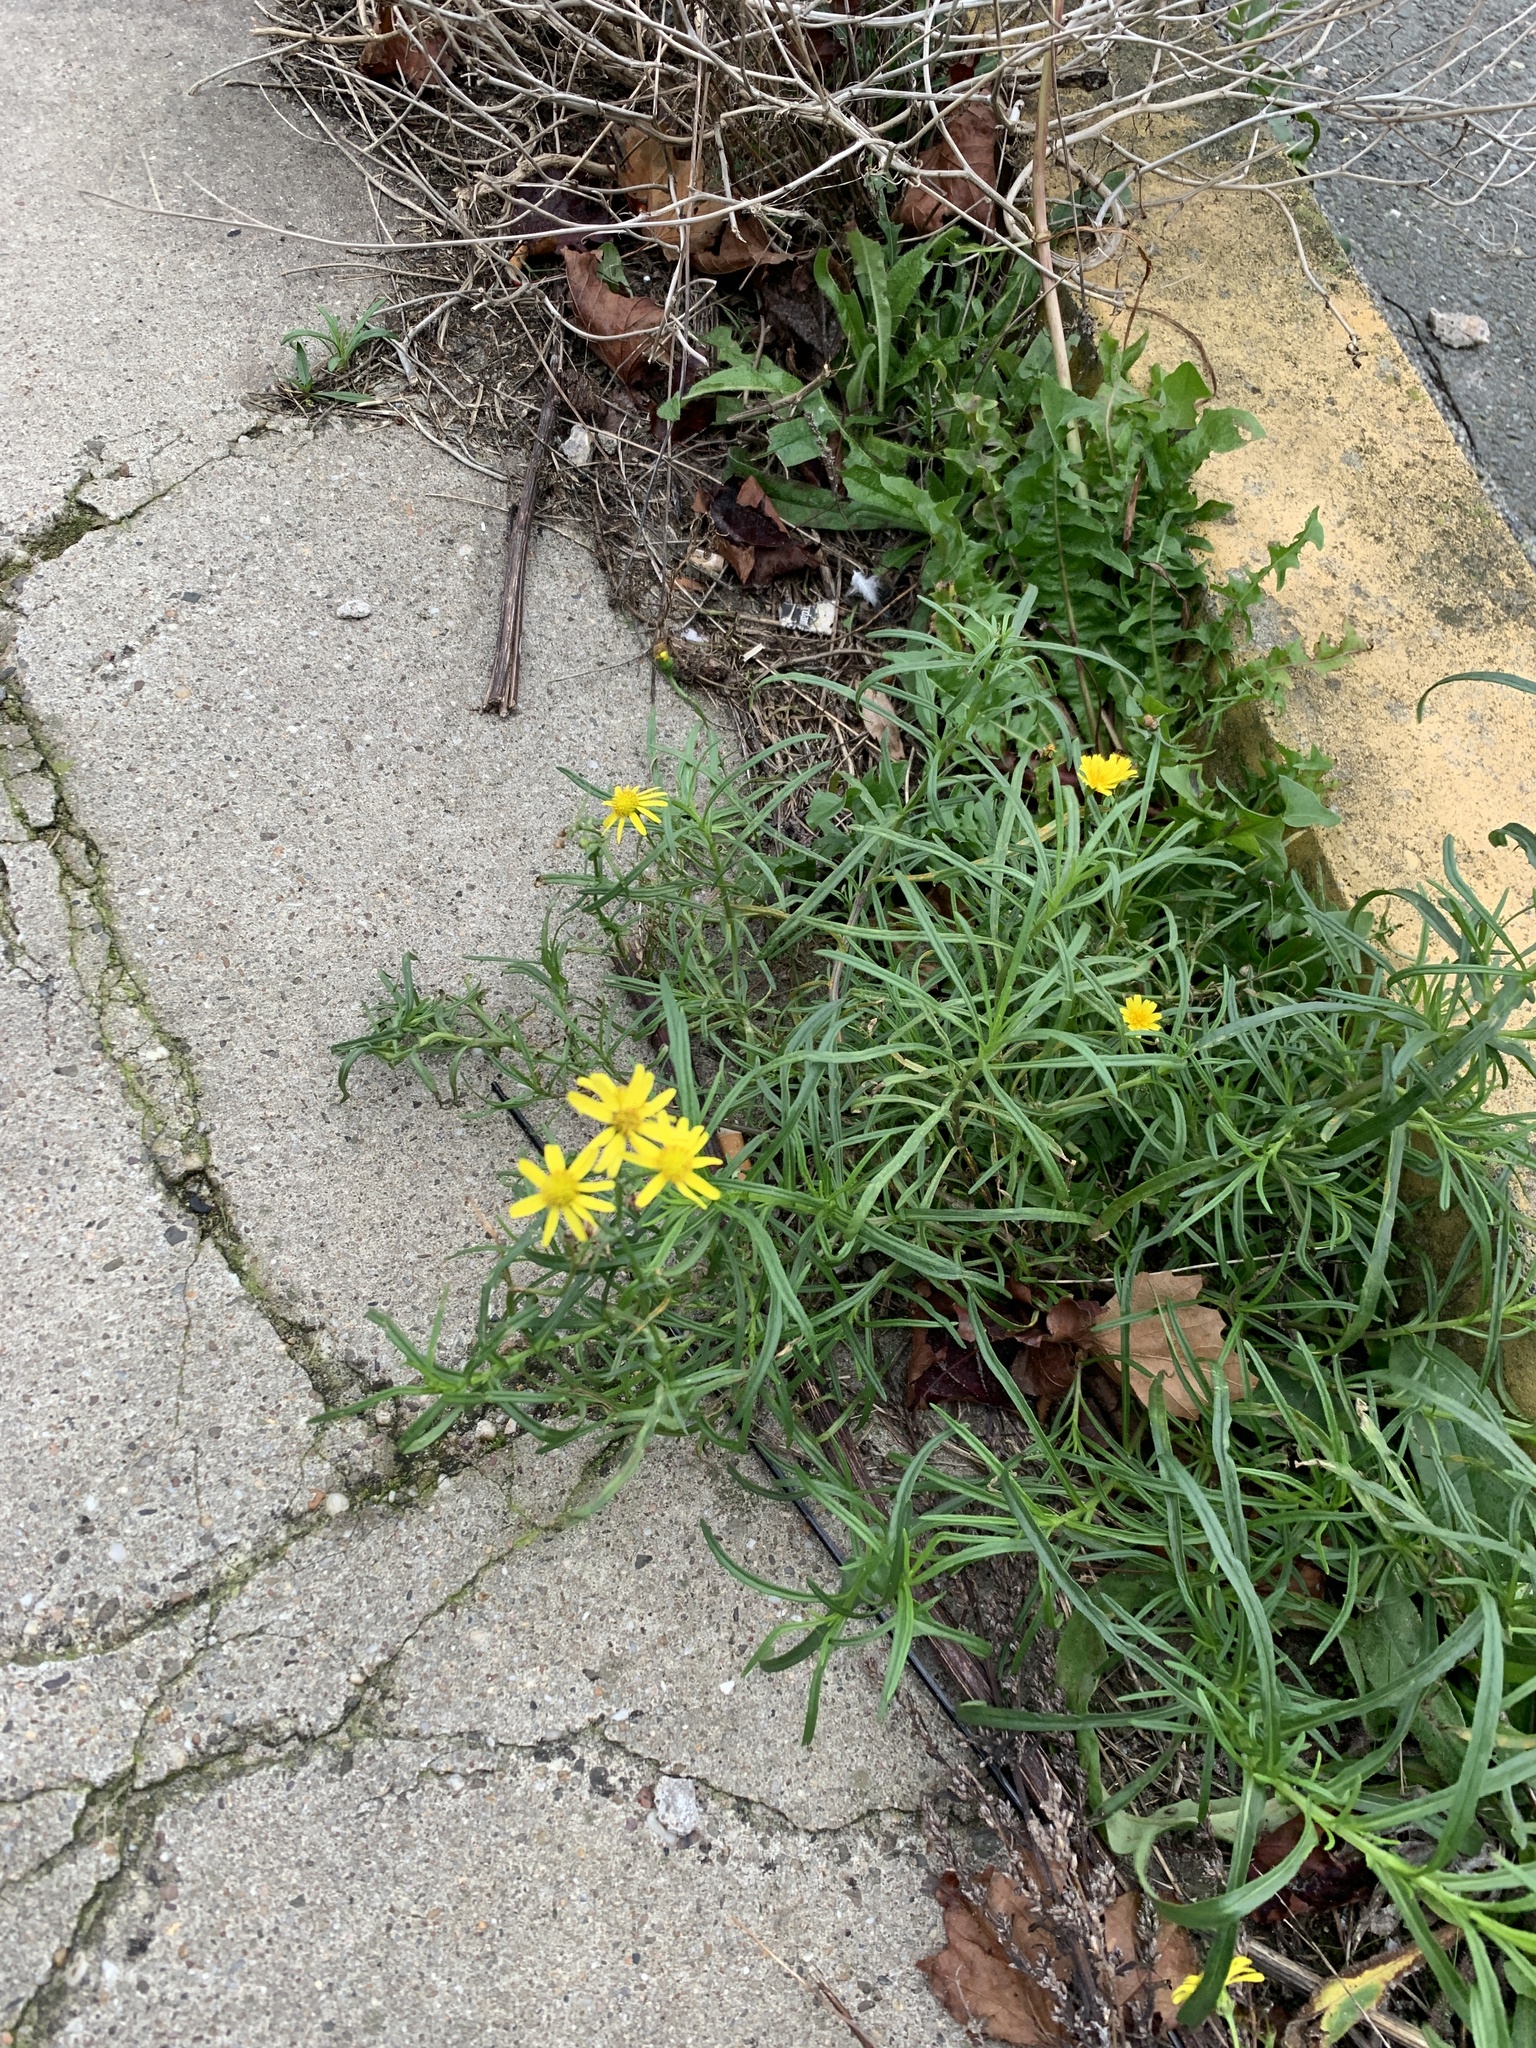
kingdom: Plantae
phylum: Tracheophyta
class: Magnoliopsida
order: Asterales
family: Asteraceae
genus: Senecio
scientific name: Senecio inaequidens
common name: Narrow-leaved ragwort
